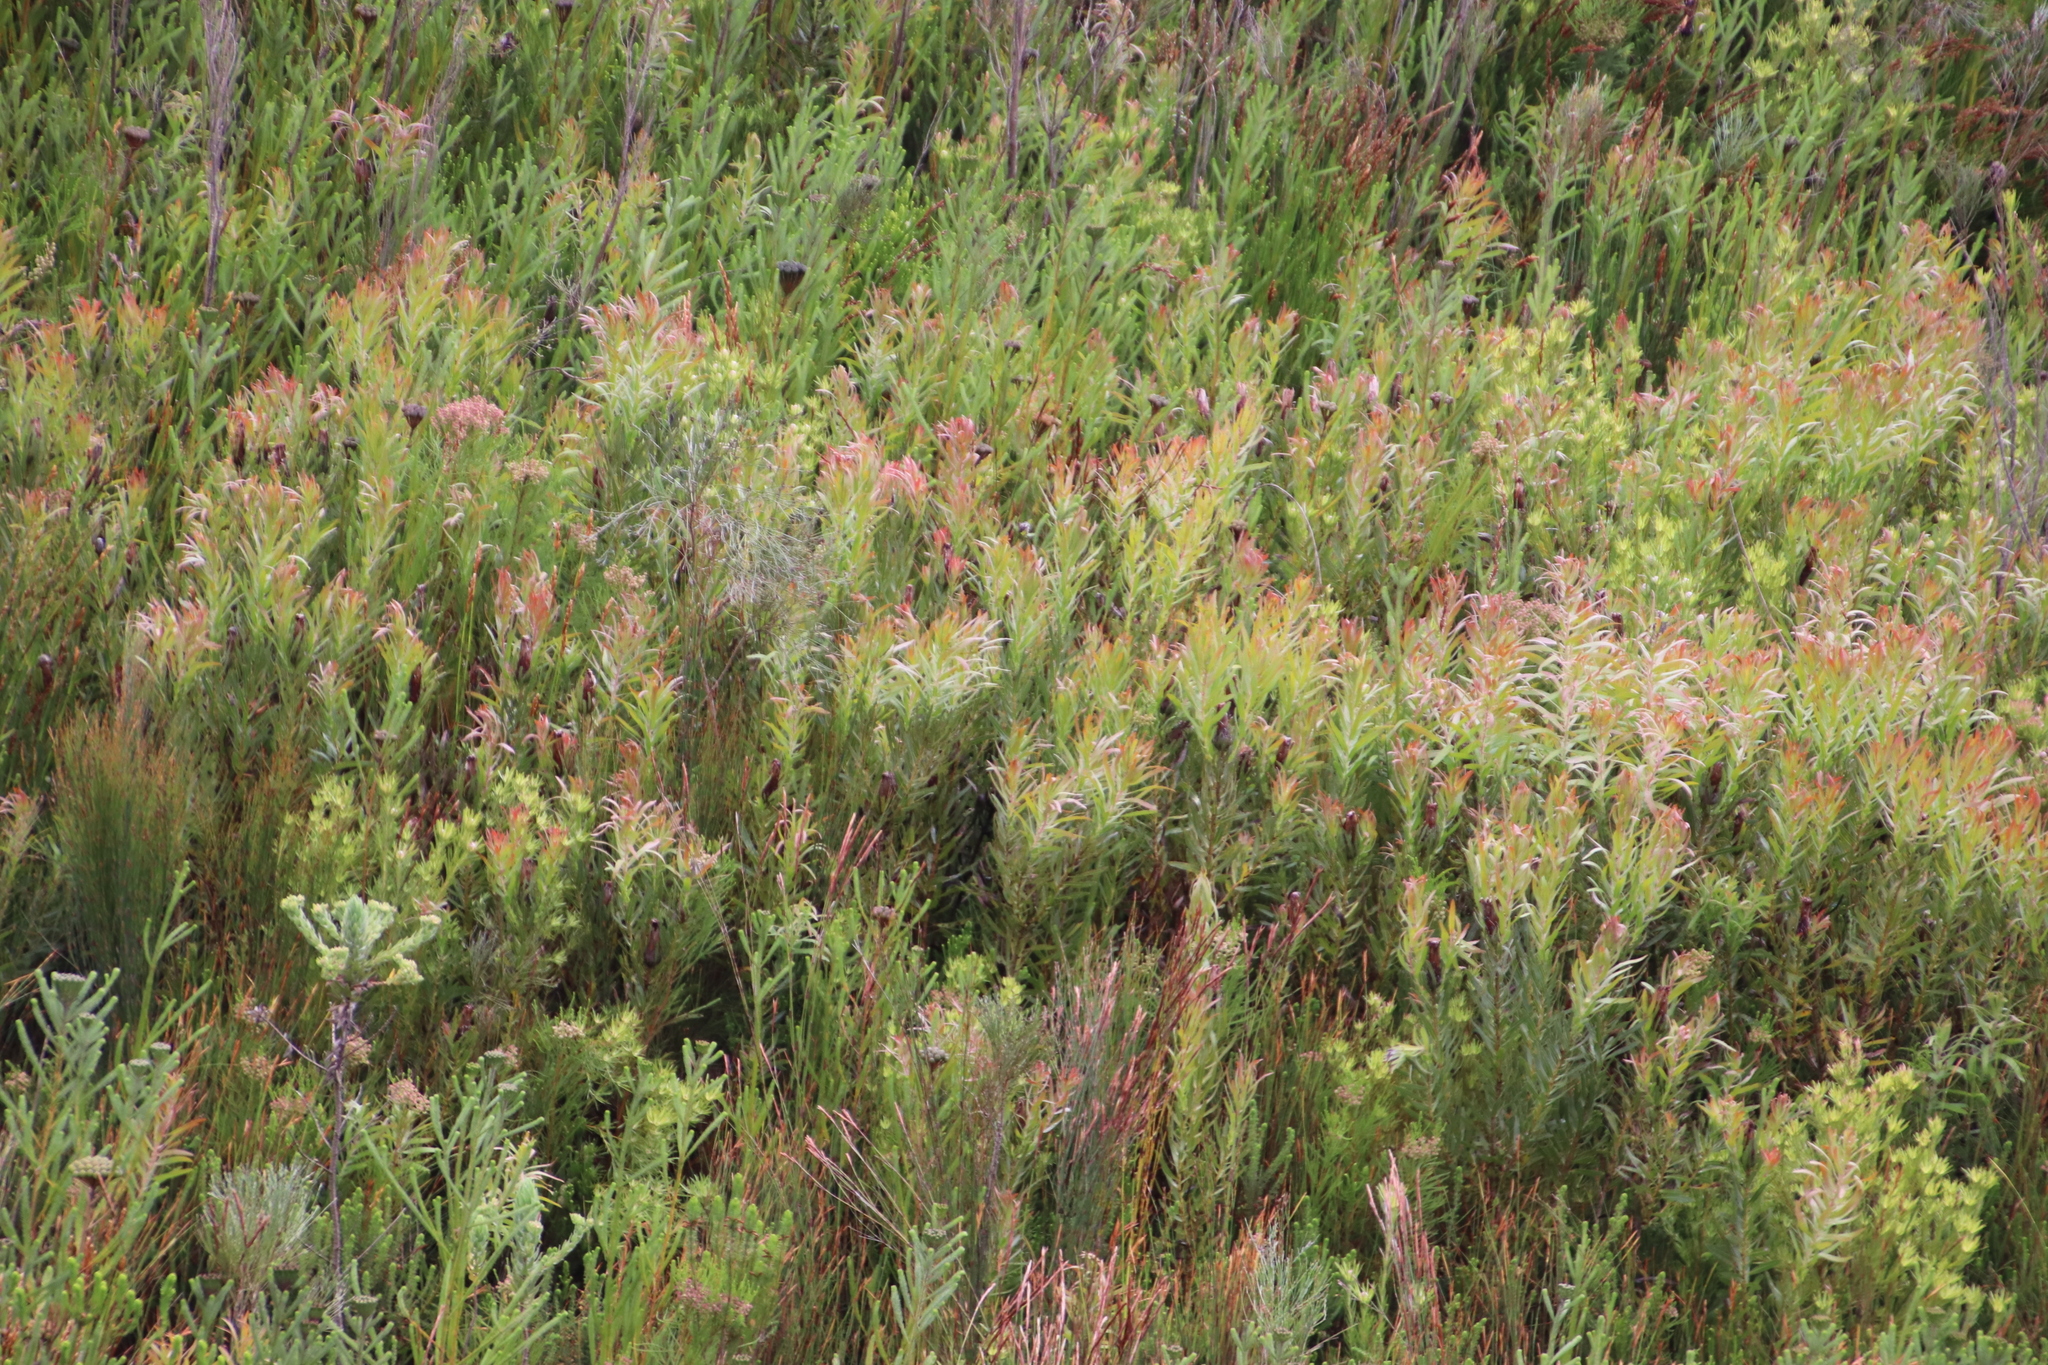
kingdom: Plantae
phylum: Tracheophyta
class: Magnoliopsida
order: Proteales
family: Proteaceae
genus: Protea
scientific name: Protea lepidocarpodendron
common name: Black-bearded protea
